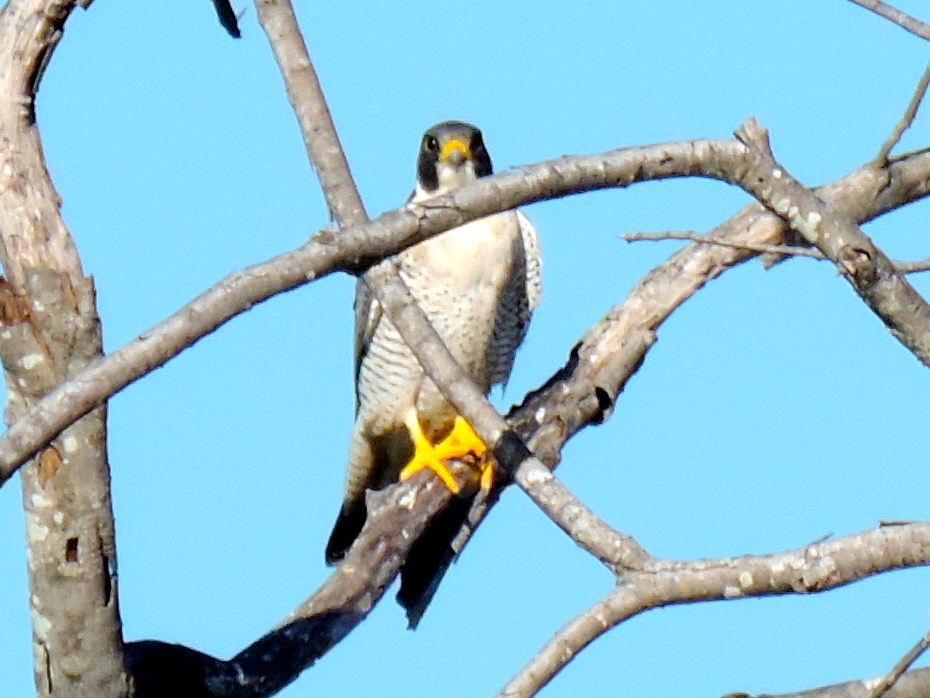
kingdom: Animalia
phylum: Chordata
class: Aves
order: Falconiformes
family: Falconidae
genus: Falco
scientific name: Falco peregrinus
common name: Peregrine falcon
